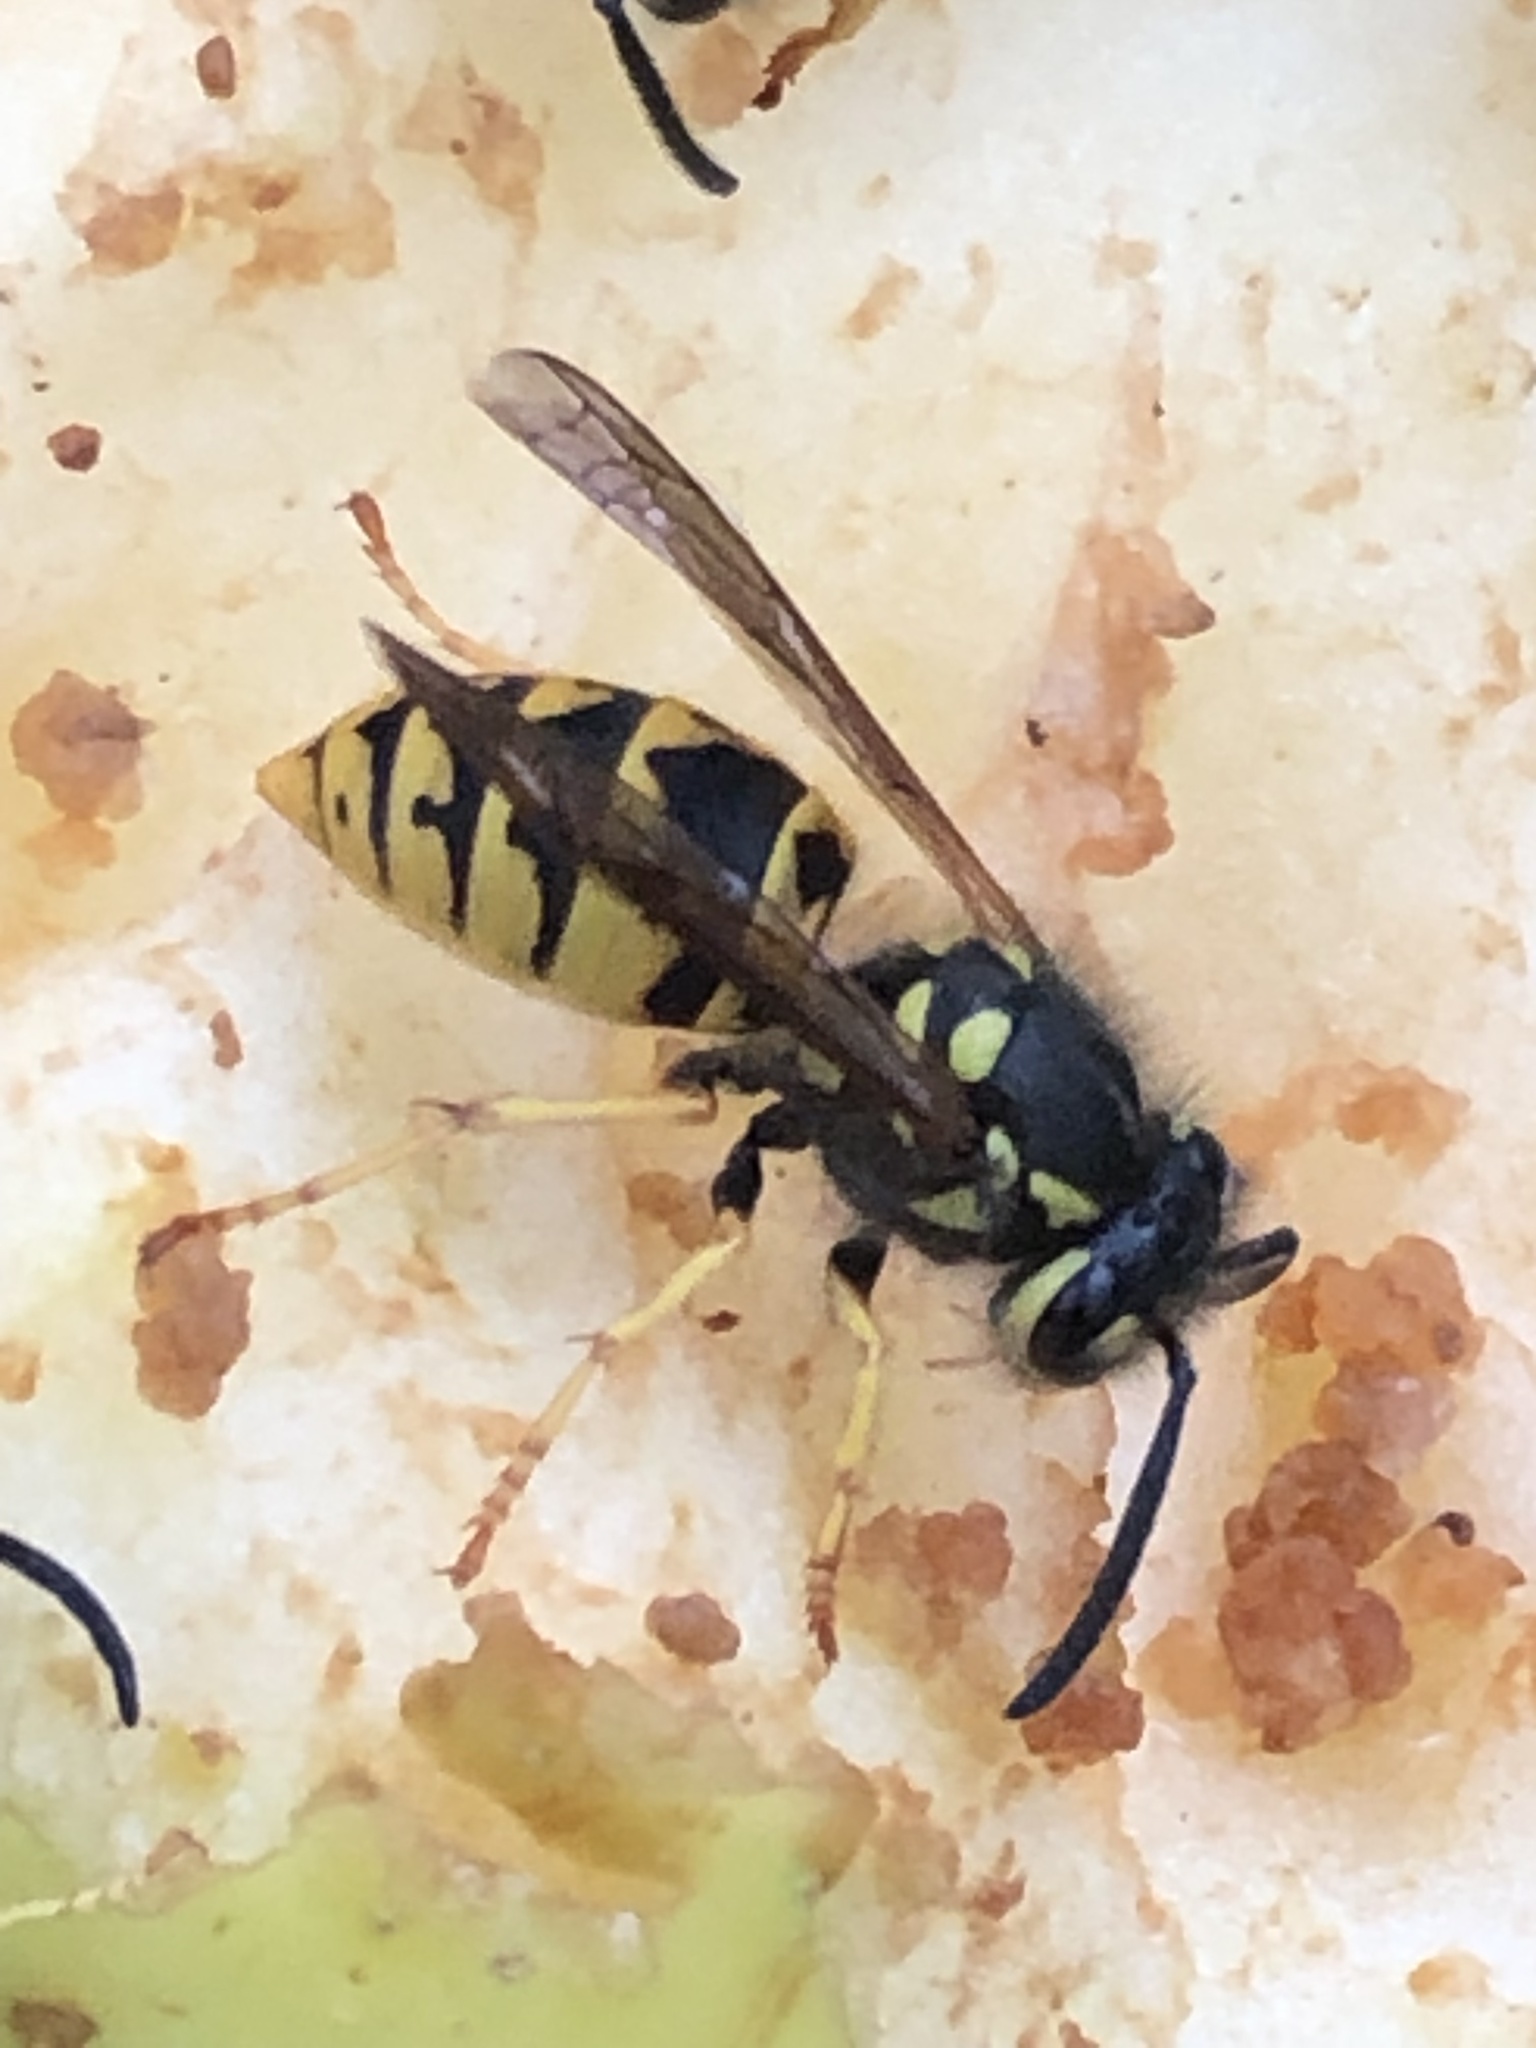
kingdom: Animalia
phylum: Arthropoda
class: Insecta
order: Hymenoptera
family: Vespidae
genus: Vespula
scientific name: Vespula germanica
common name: German wasp
